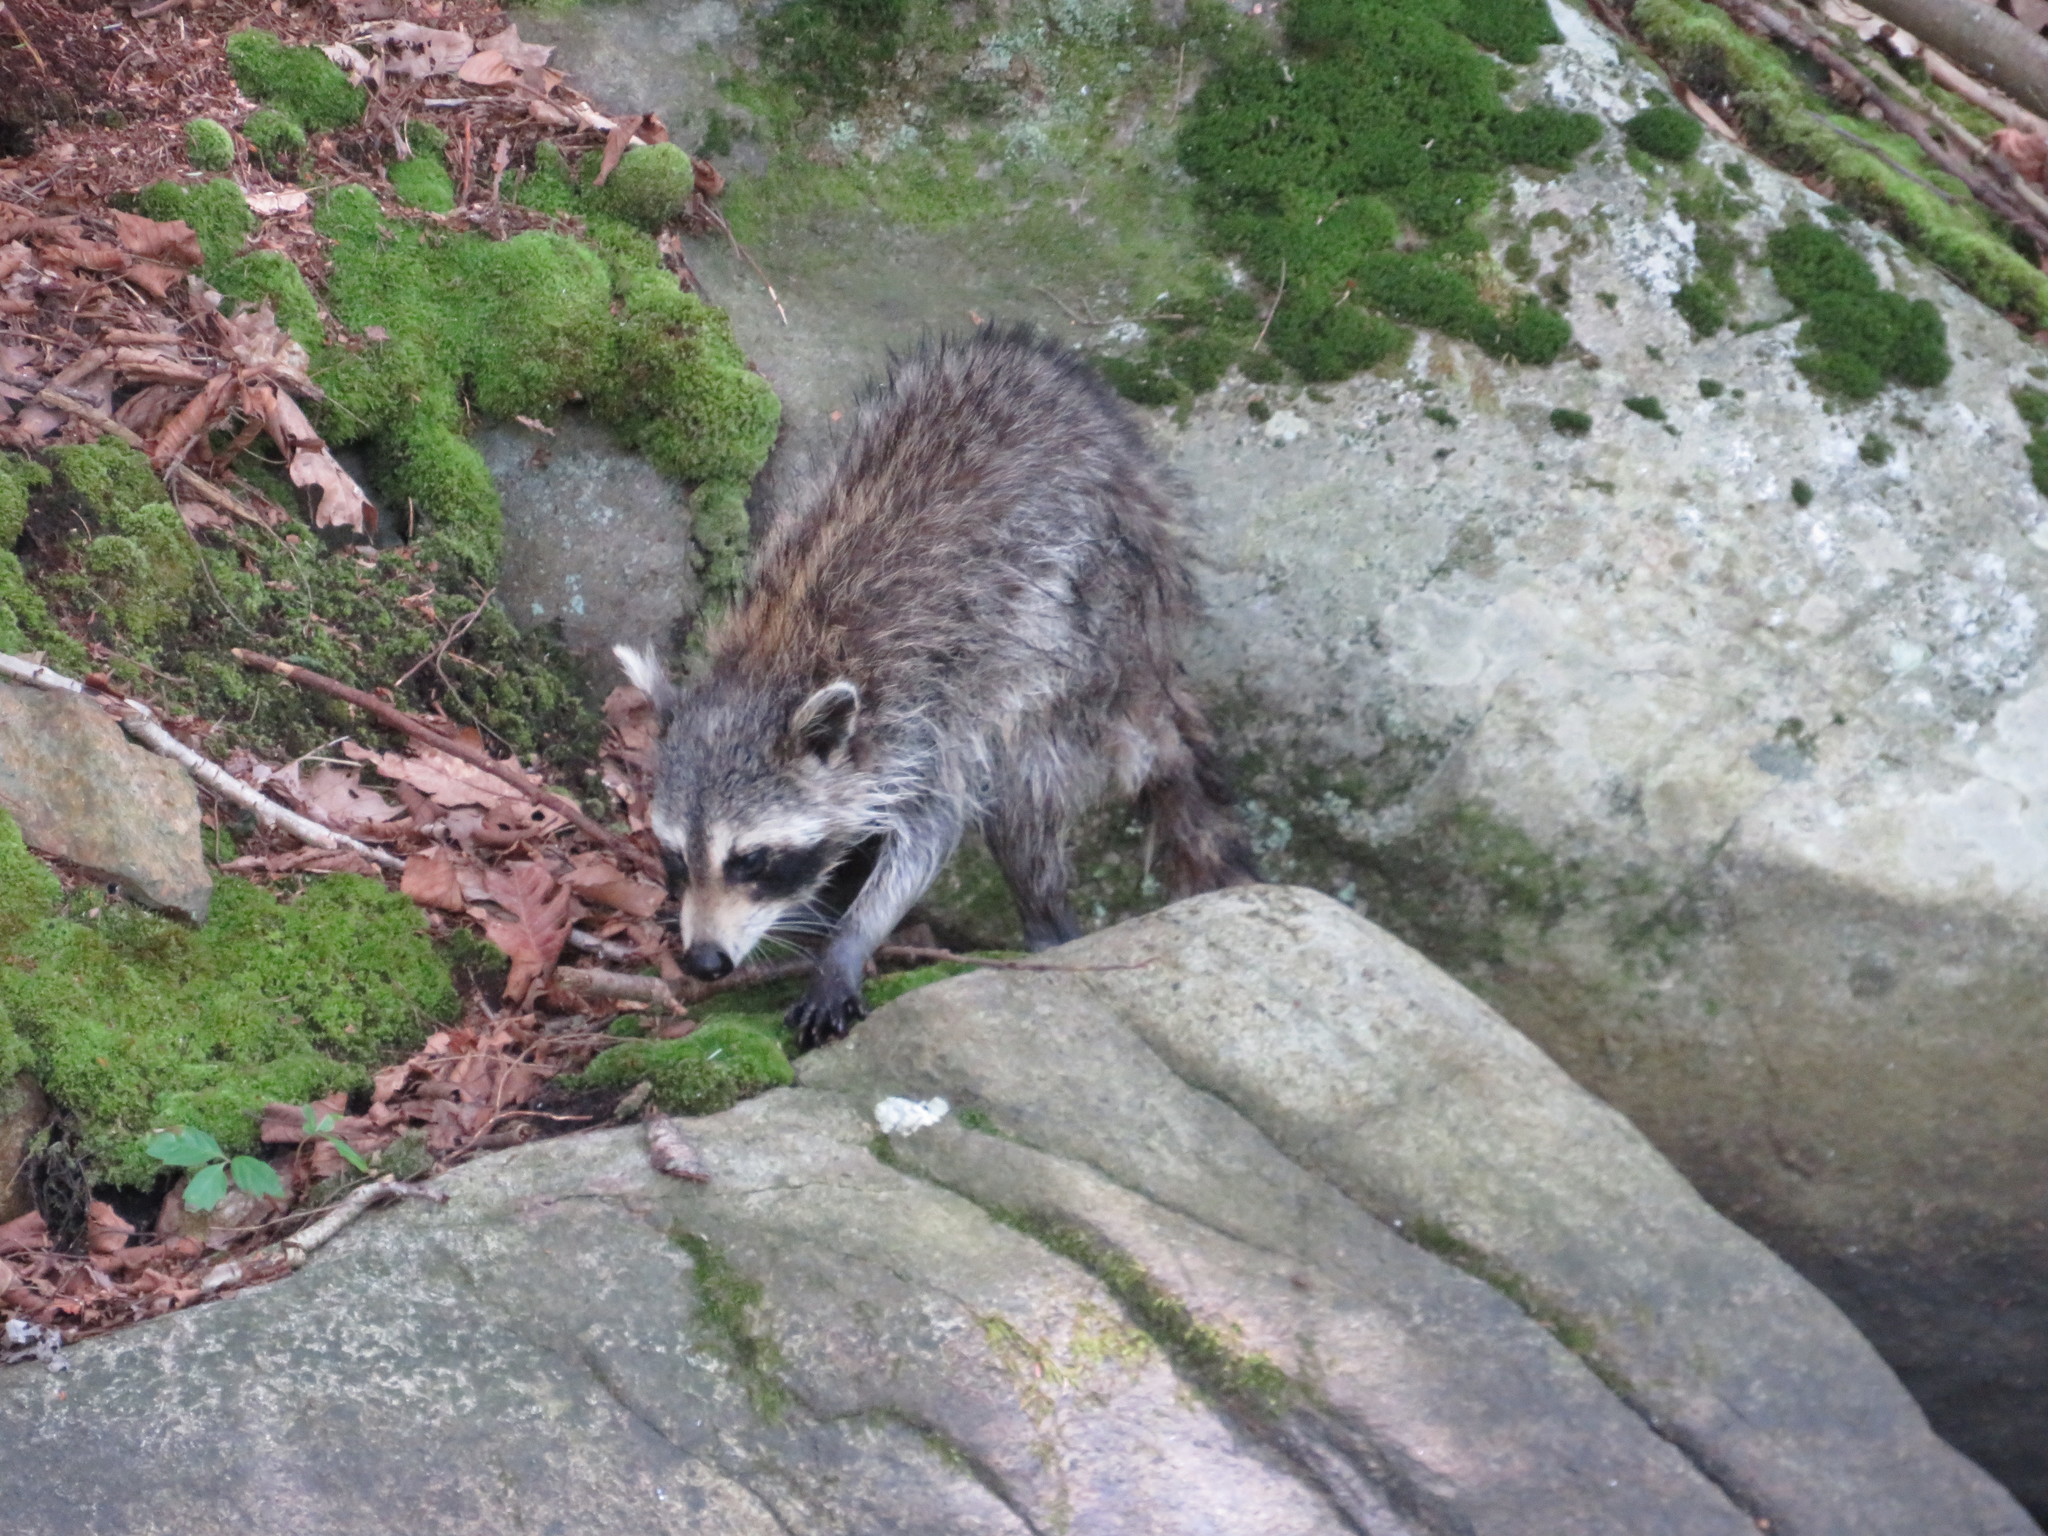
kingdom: Animalia
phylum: Chordata
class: Mammalia
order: Carnivora
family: Procyonidae
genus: Procyon
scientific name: Procyon lotor
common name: Raccoon
